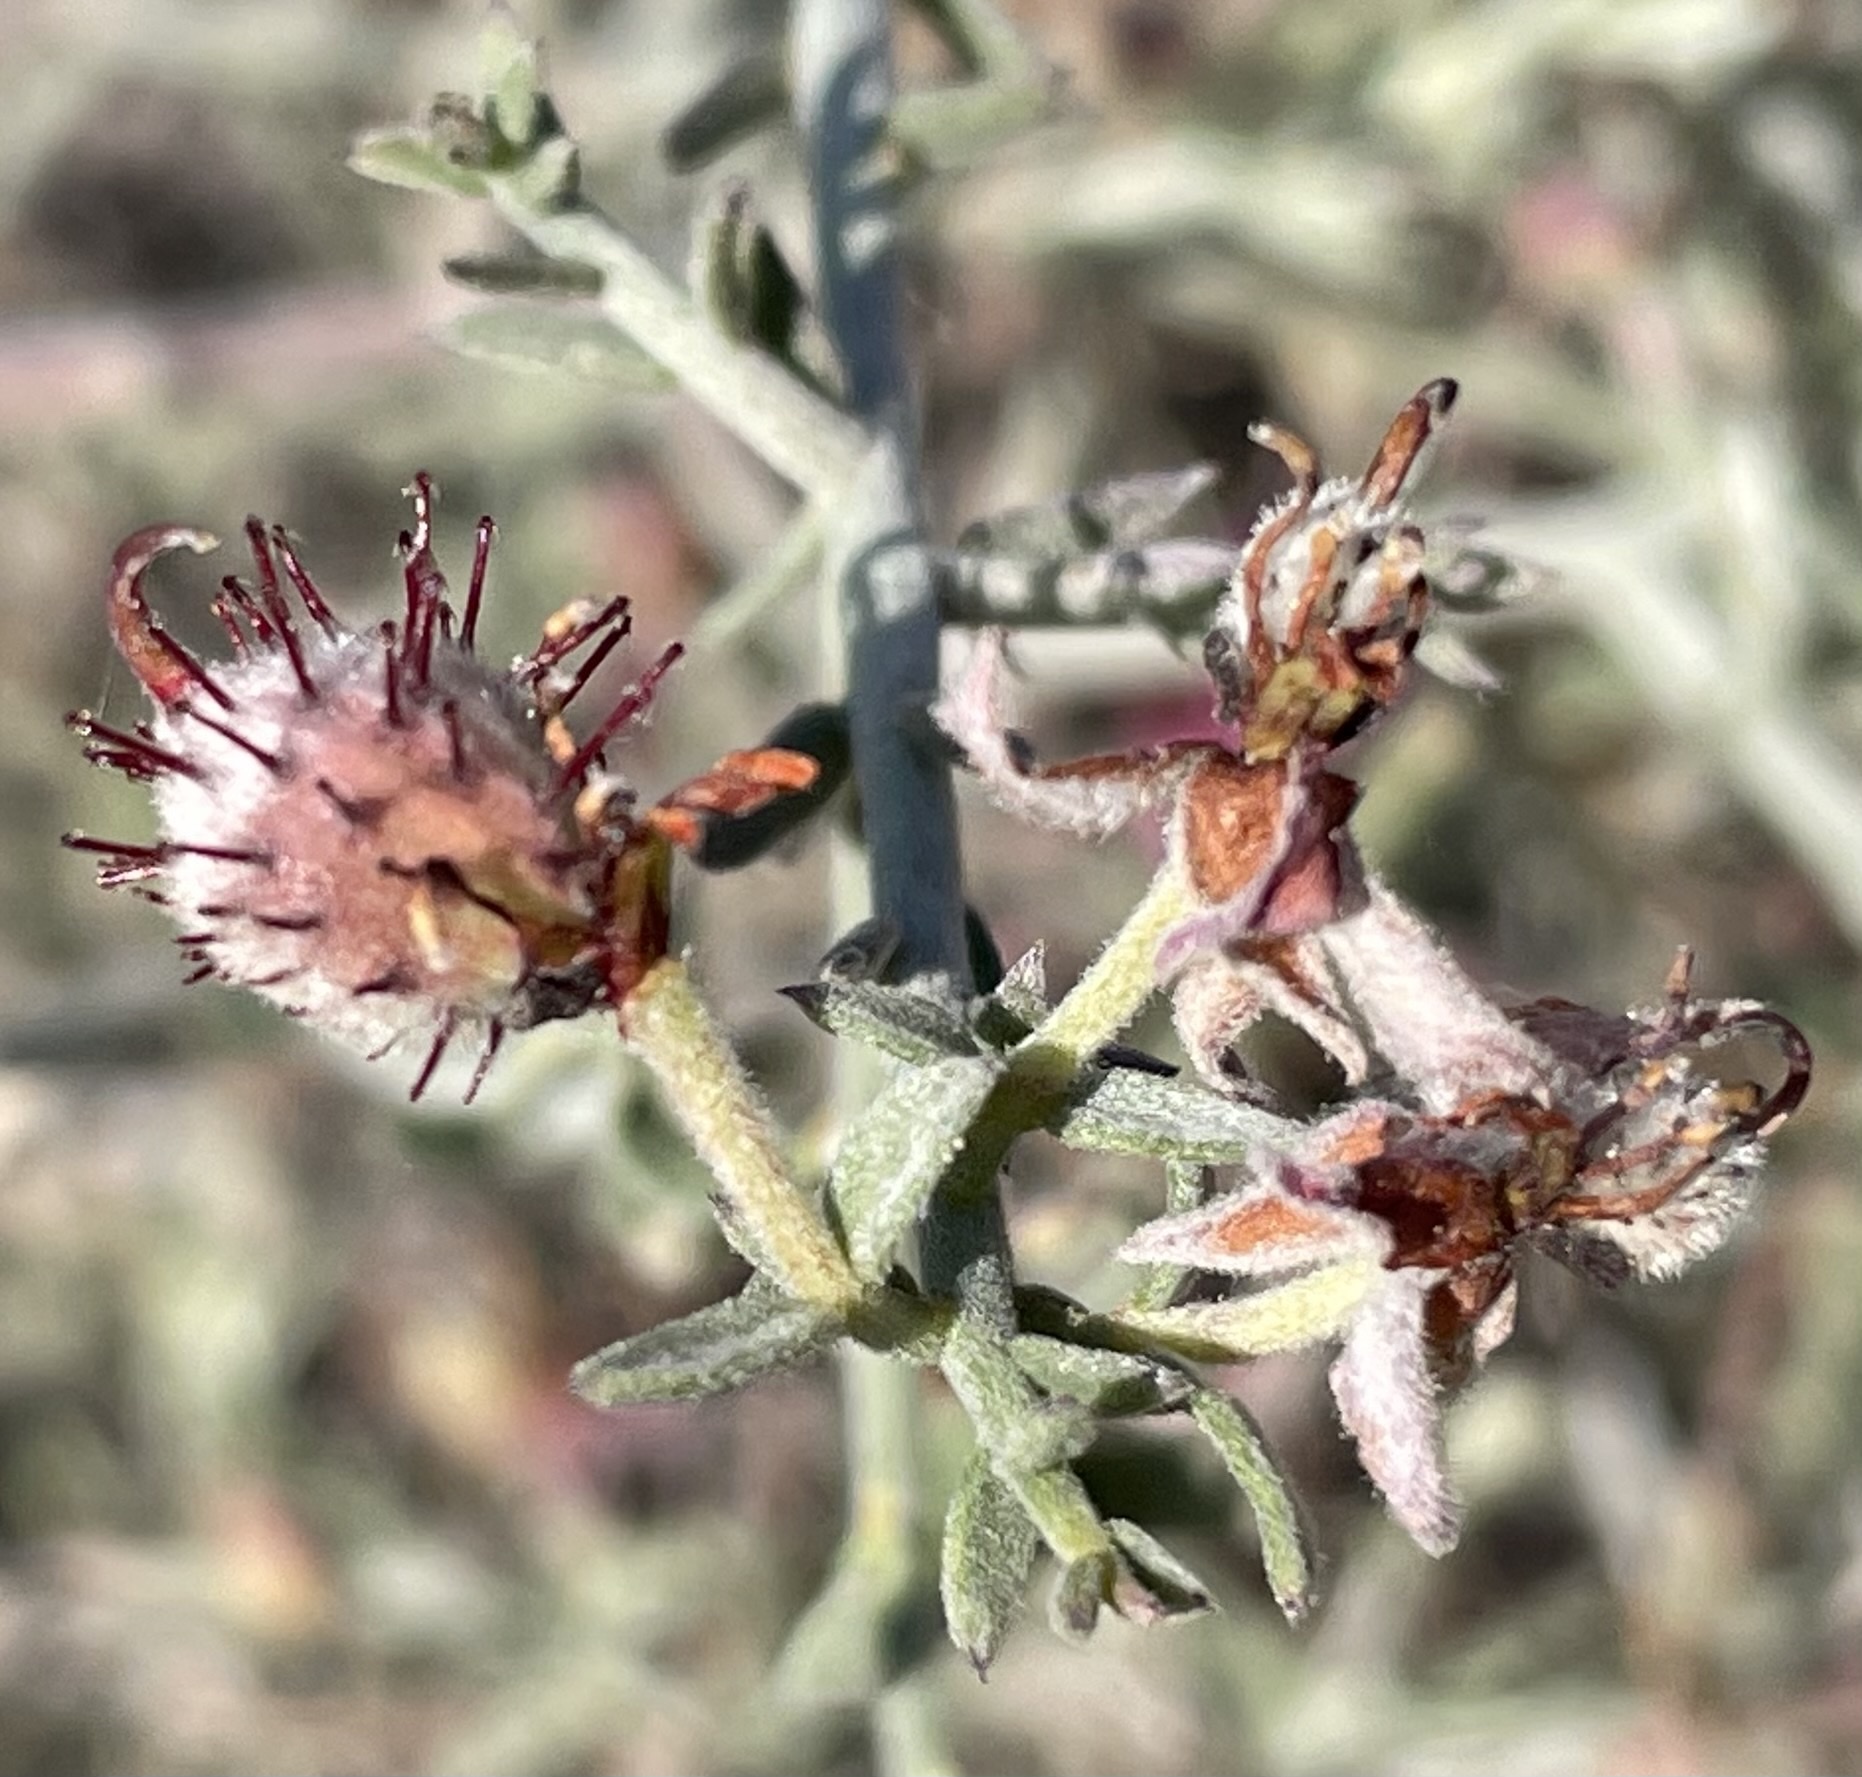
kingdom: Plantae
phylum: Tracheophyta
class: Magnoliopsida
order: Zygophyllales
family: Krameriaceae
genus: Krameria
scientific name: Krameria bicolor
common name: White ratany
